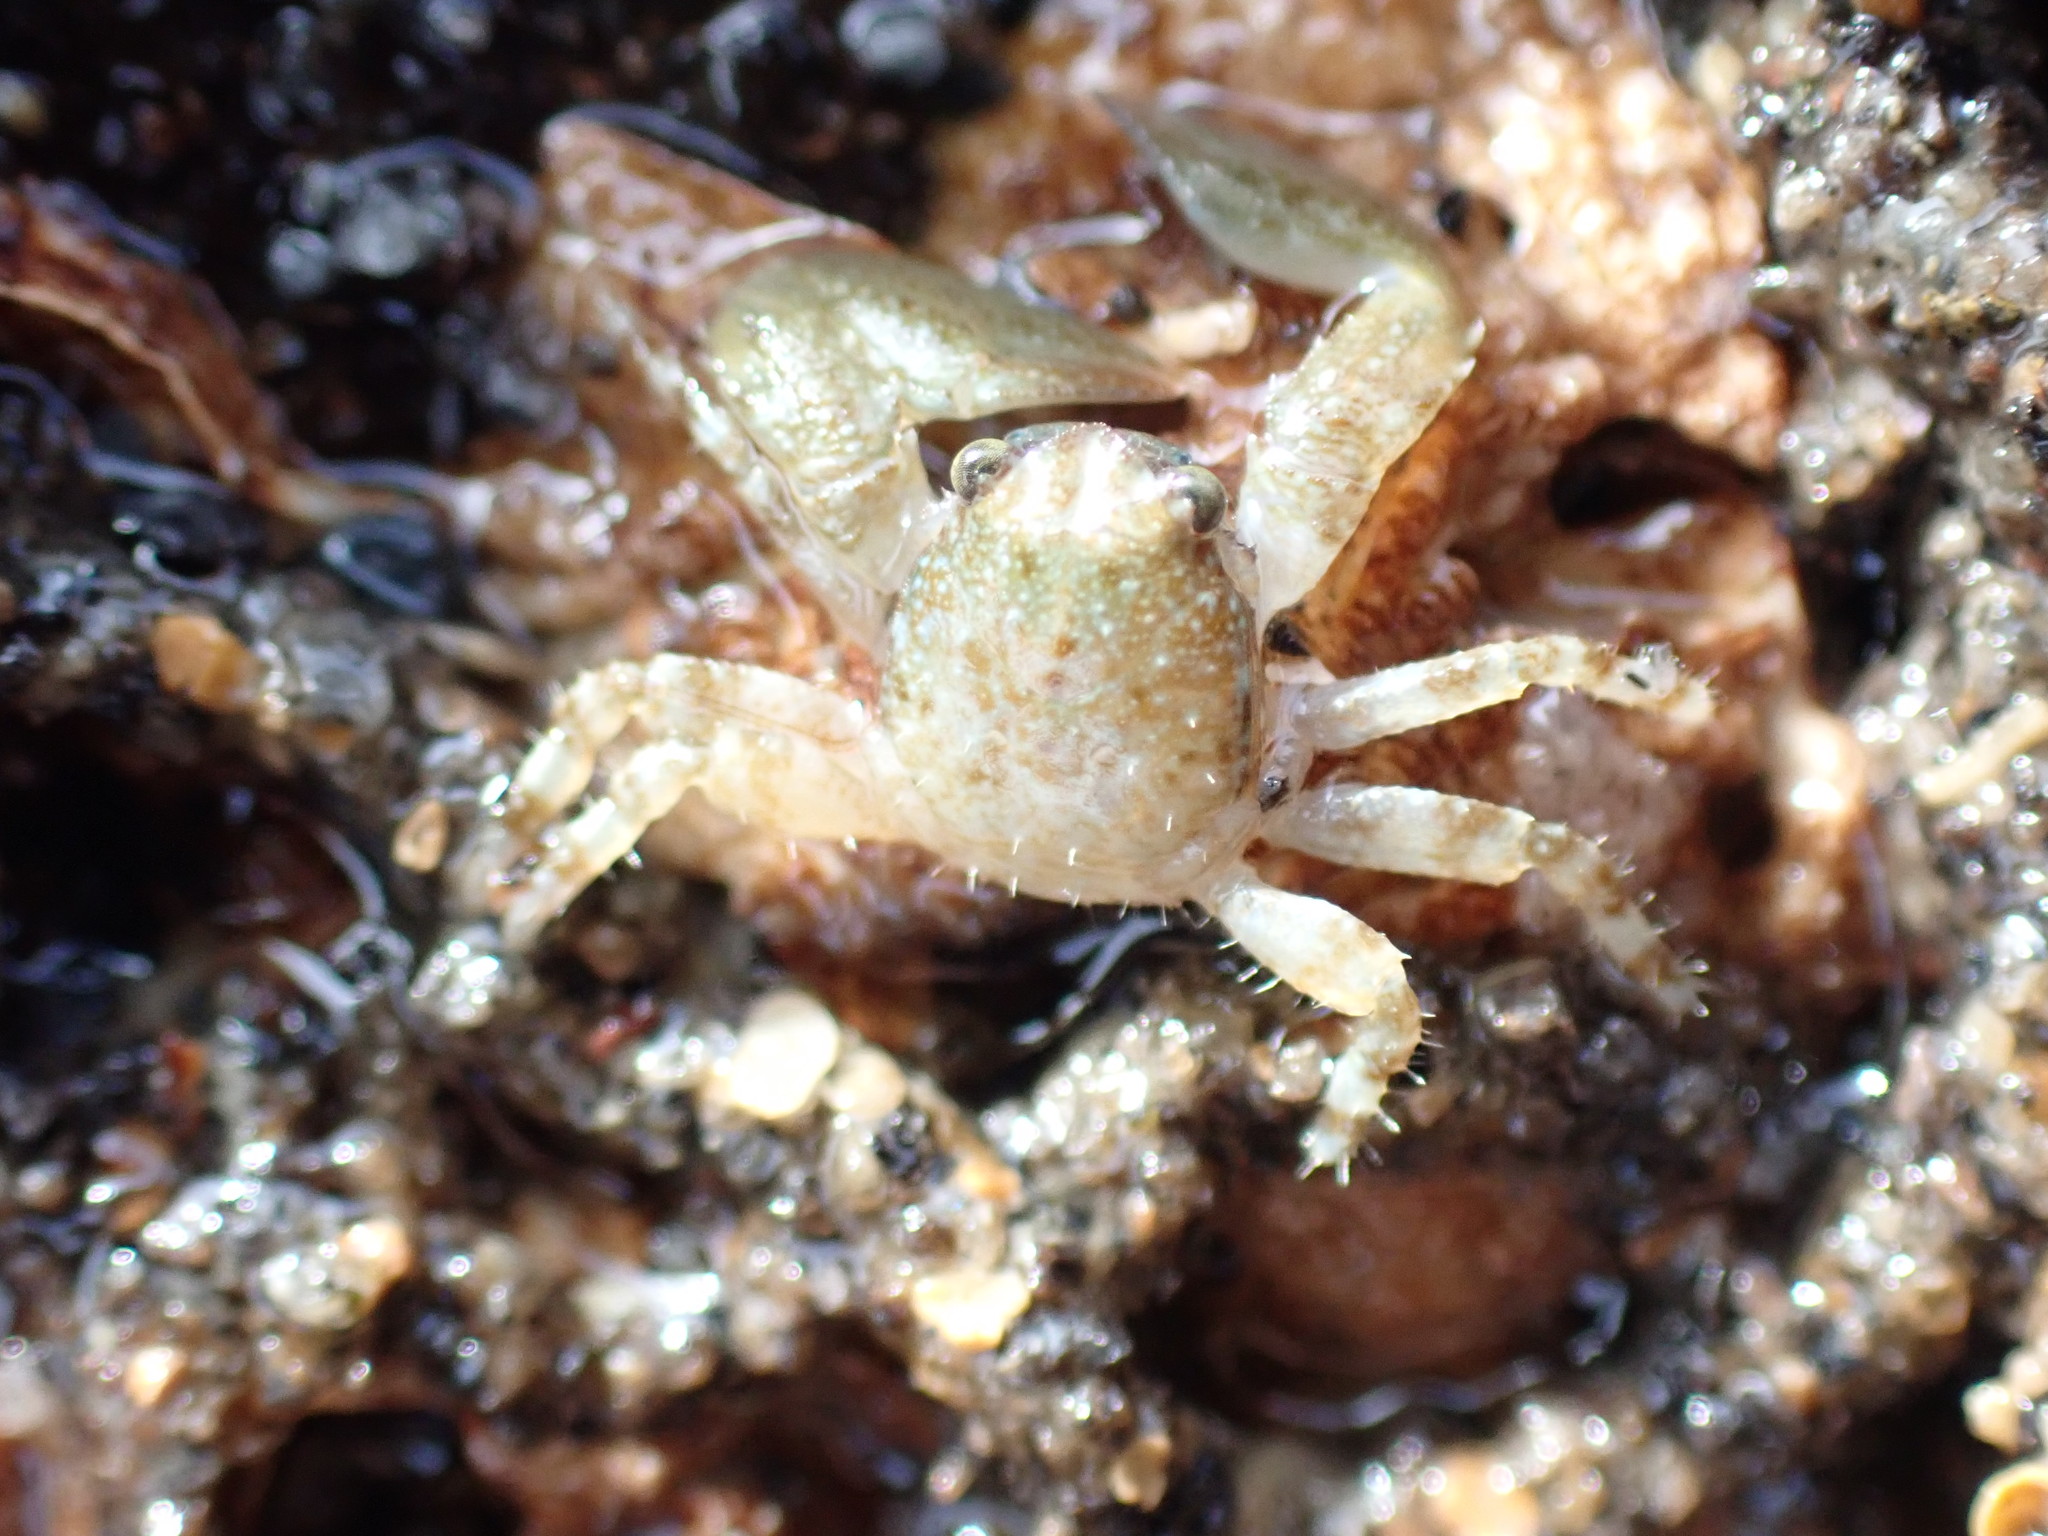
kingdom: Animalia
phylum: Arthropoda
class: Malacostraca
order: Decapoda
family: Porcellanidae
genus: Petrocheles
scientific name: Petrocheles spinosus
